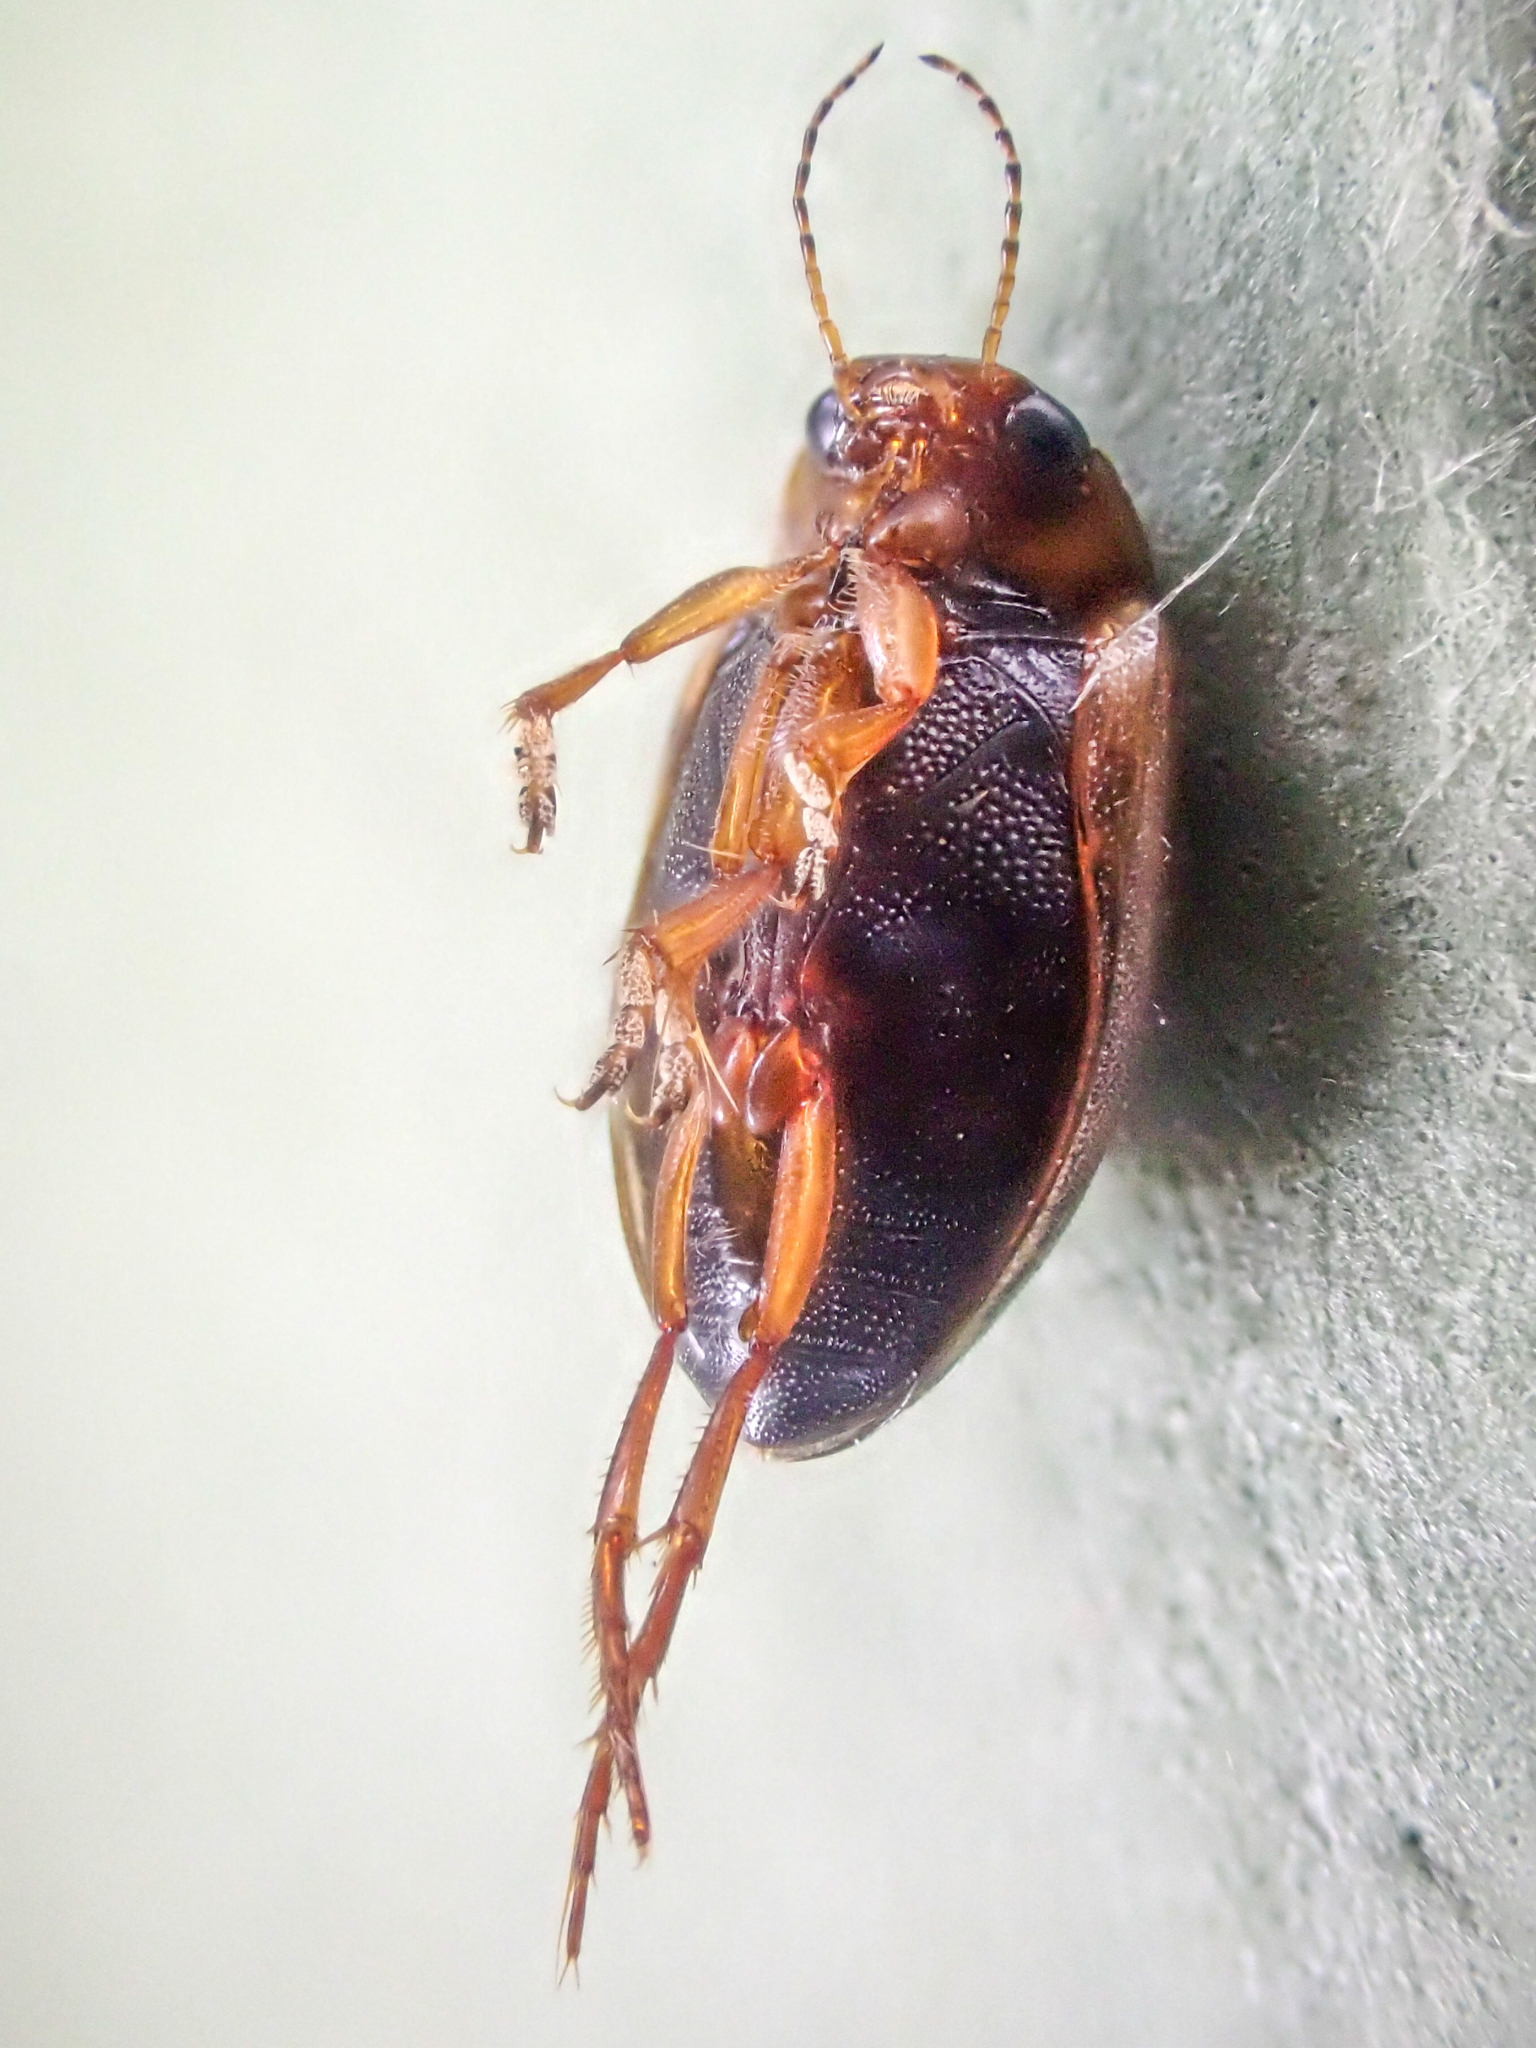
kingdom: Animalia
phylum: Arthropoda
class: Insecta
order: Coleoptera
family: Dytiscidae
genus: Hygrotus
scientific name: Hygrotus
